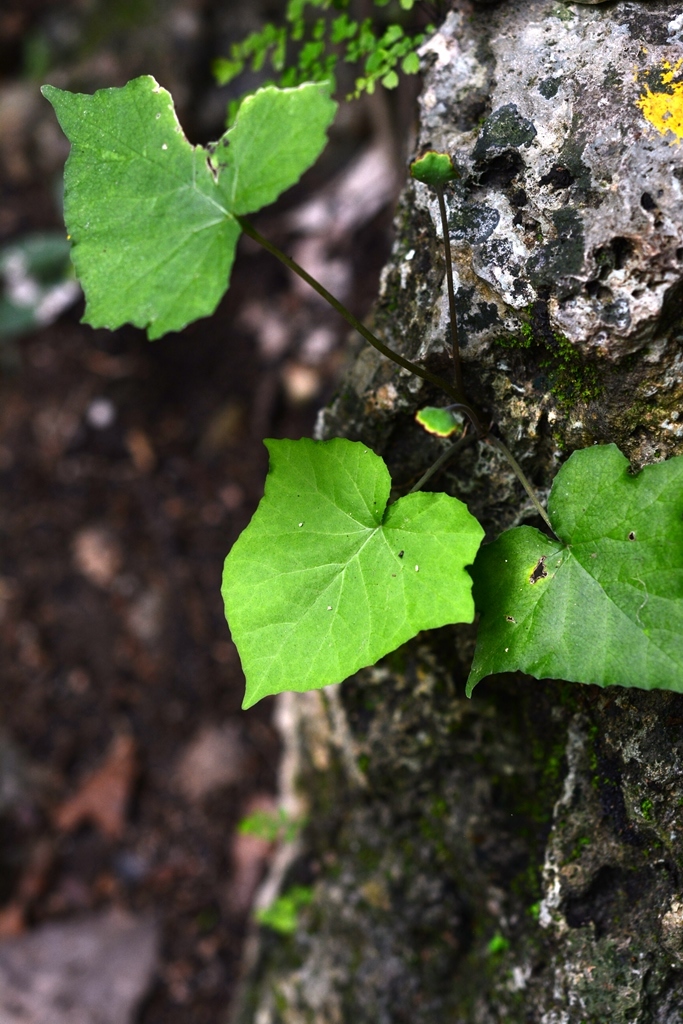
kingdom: Plantae
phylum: Tracheophyta
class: Magnoliopsida
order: Rosales
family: Moraceae
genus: Dorstenia
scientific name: Dorstenia contrajerva
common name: Tusilla
